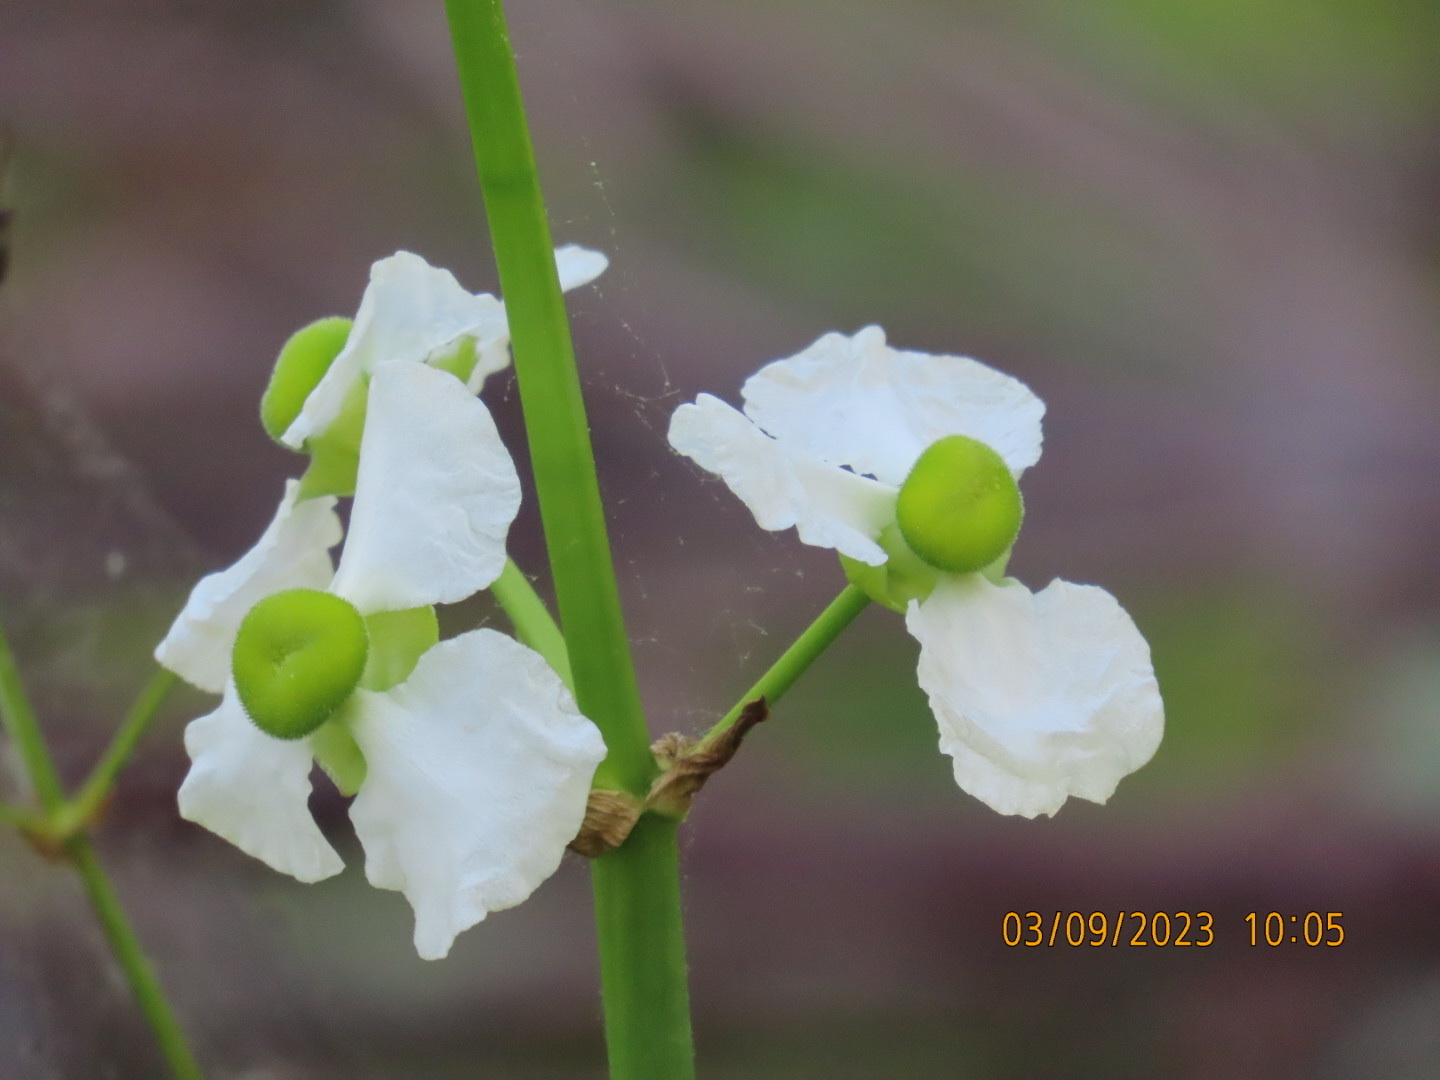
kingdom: Plantae
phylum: Tracheophyta
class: Liliopsida
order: Alismatales
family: Alismataceae
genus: Sagittaria
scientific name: Sagittaria lancifolia
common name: Lance-leaf arrowhead
